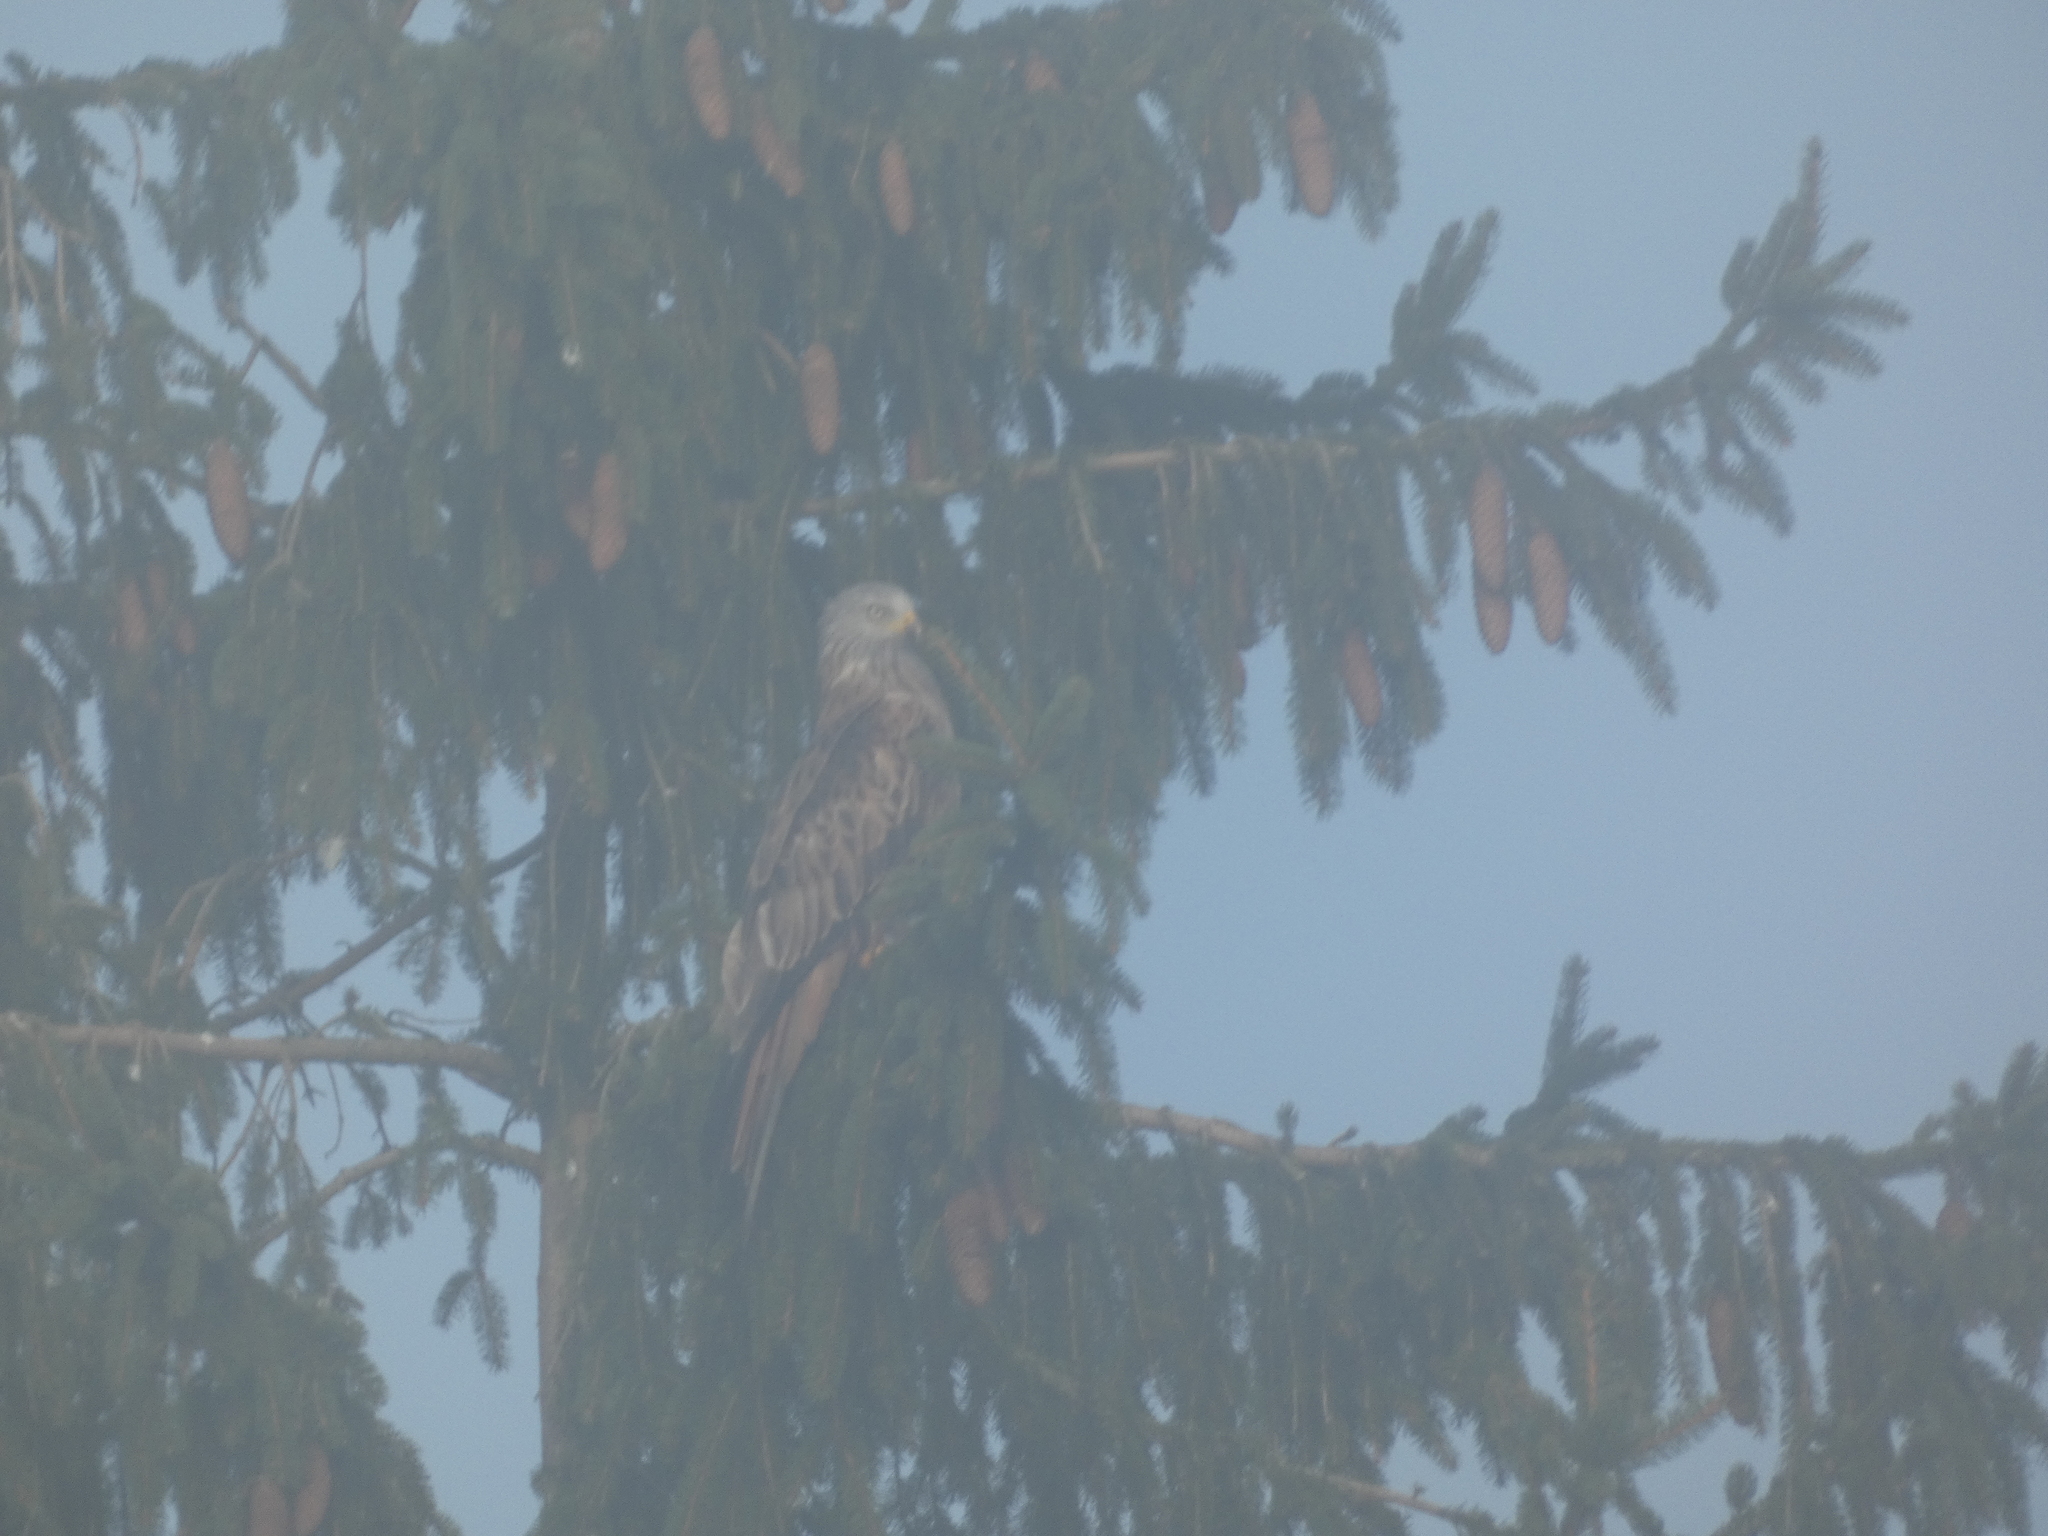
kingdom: Animalia
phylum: Chordata
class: Aves
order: Accipitriformes
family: Accipitridae
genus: Milvus
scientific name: Milvus milvus
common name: Red kite
